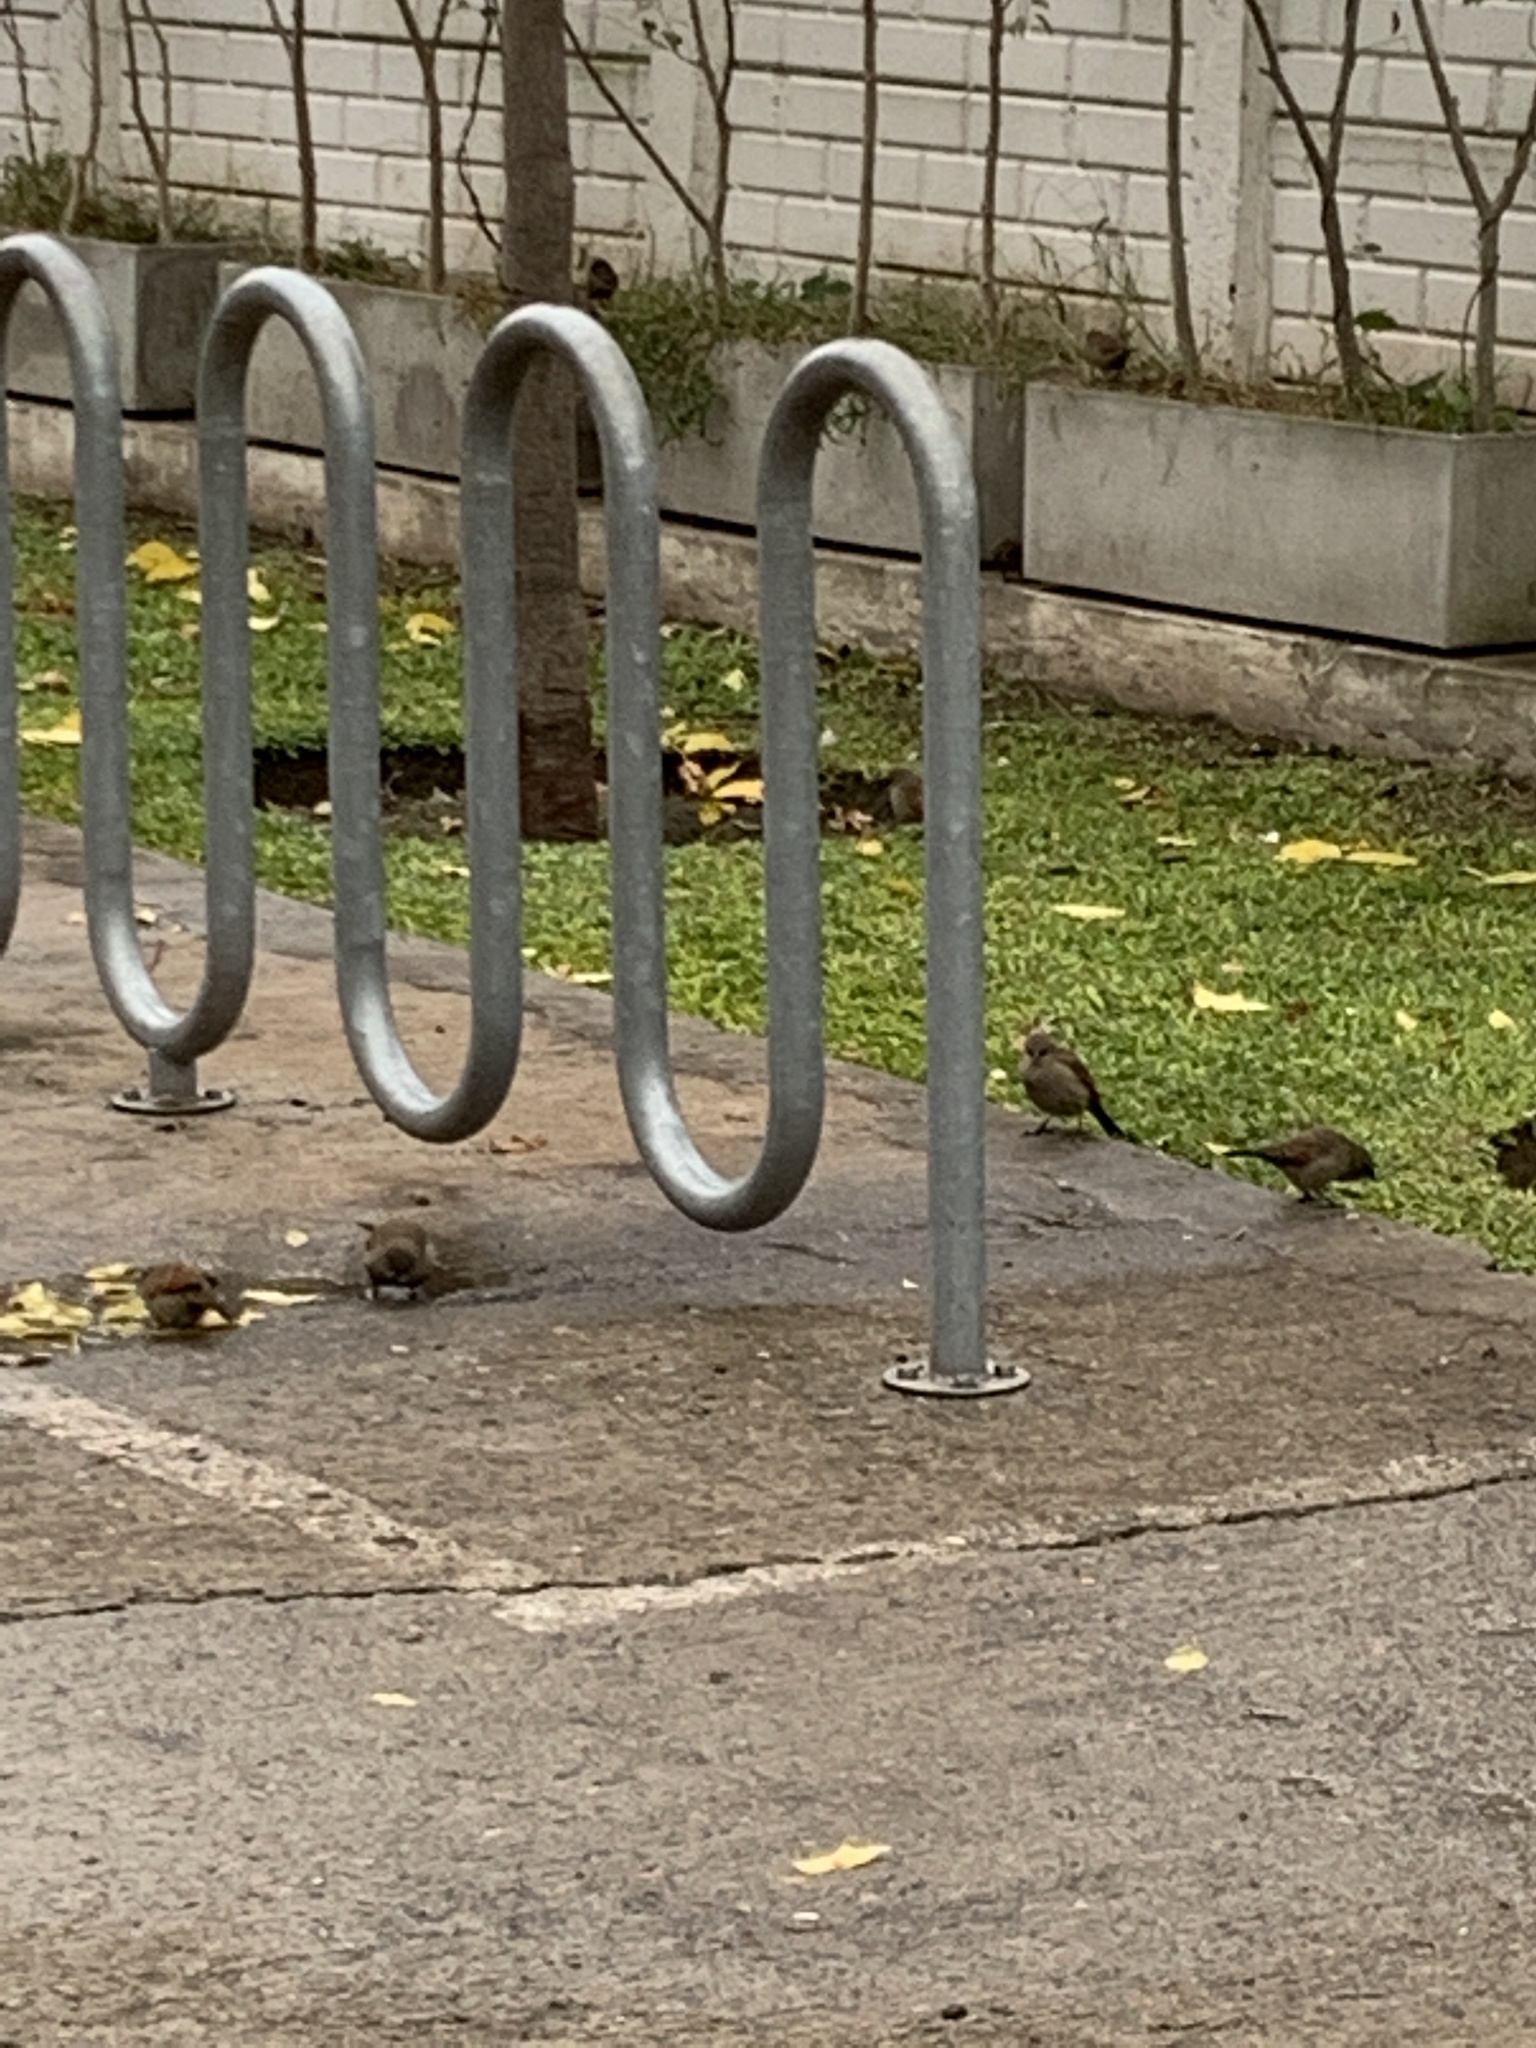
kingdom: Animalia
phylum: Chordata
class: Aves
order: Passeriformes
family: Icteridae
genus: Agelaioides
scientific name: Agelaioides badius
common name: Baywing
